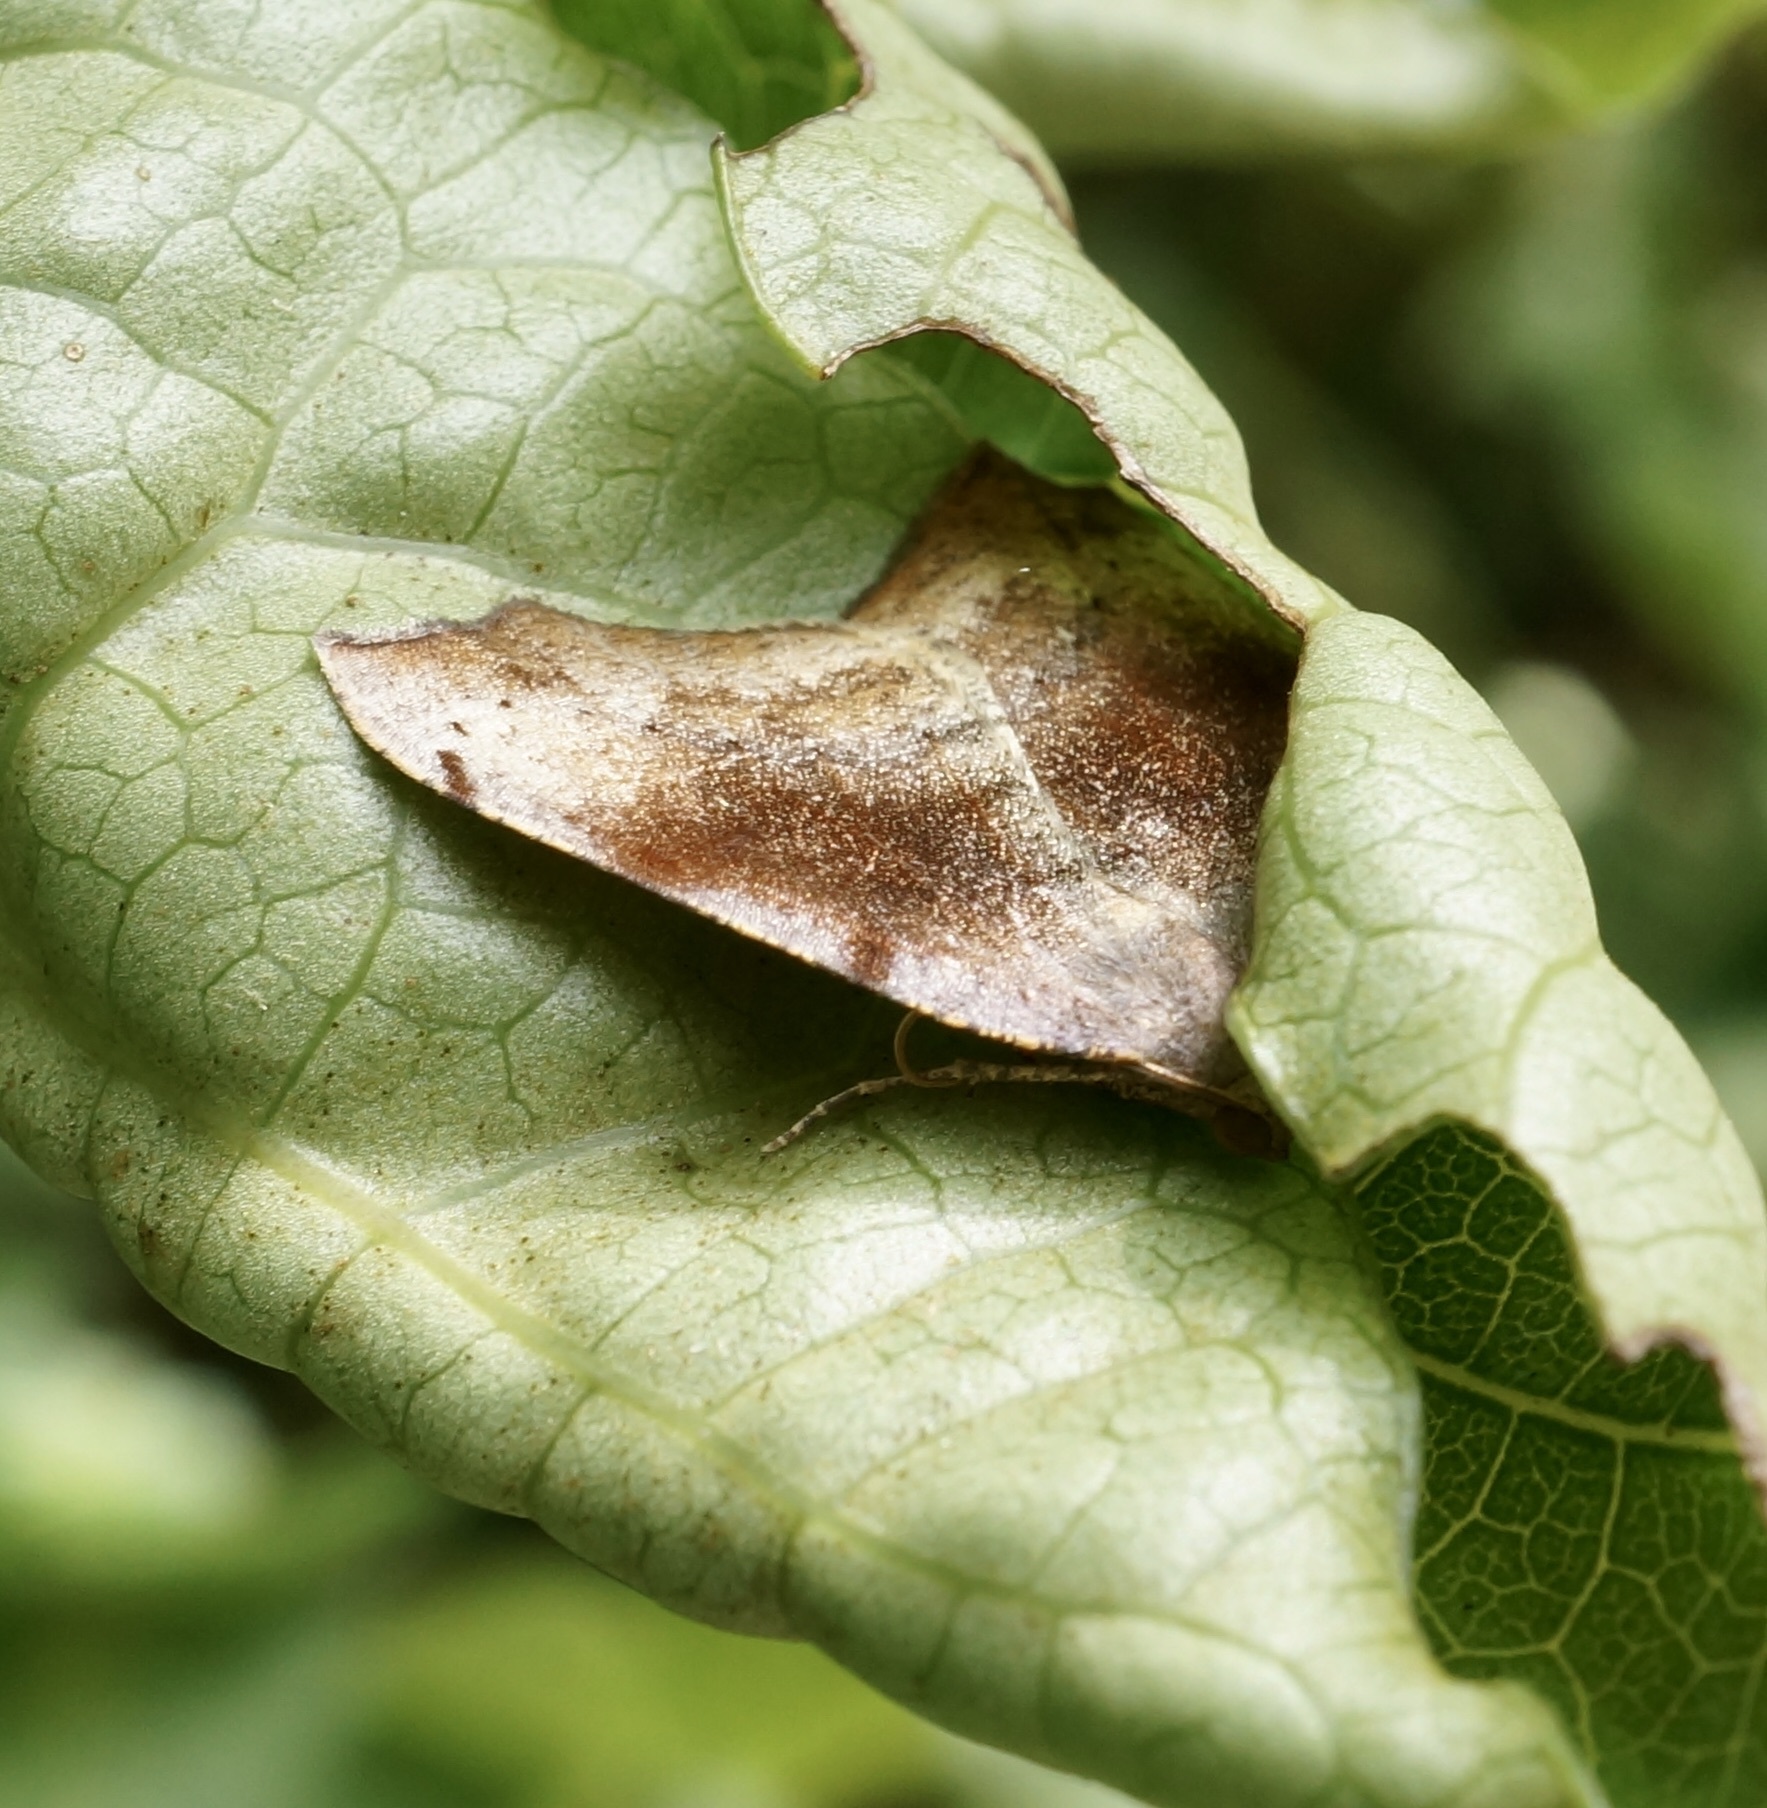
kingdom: Animalia
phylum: Arthropoda
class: Insecta
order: Lepidoptera
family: Geometridae
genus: Sestra
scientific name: Sestra flexata
